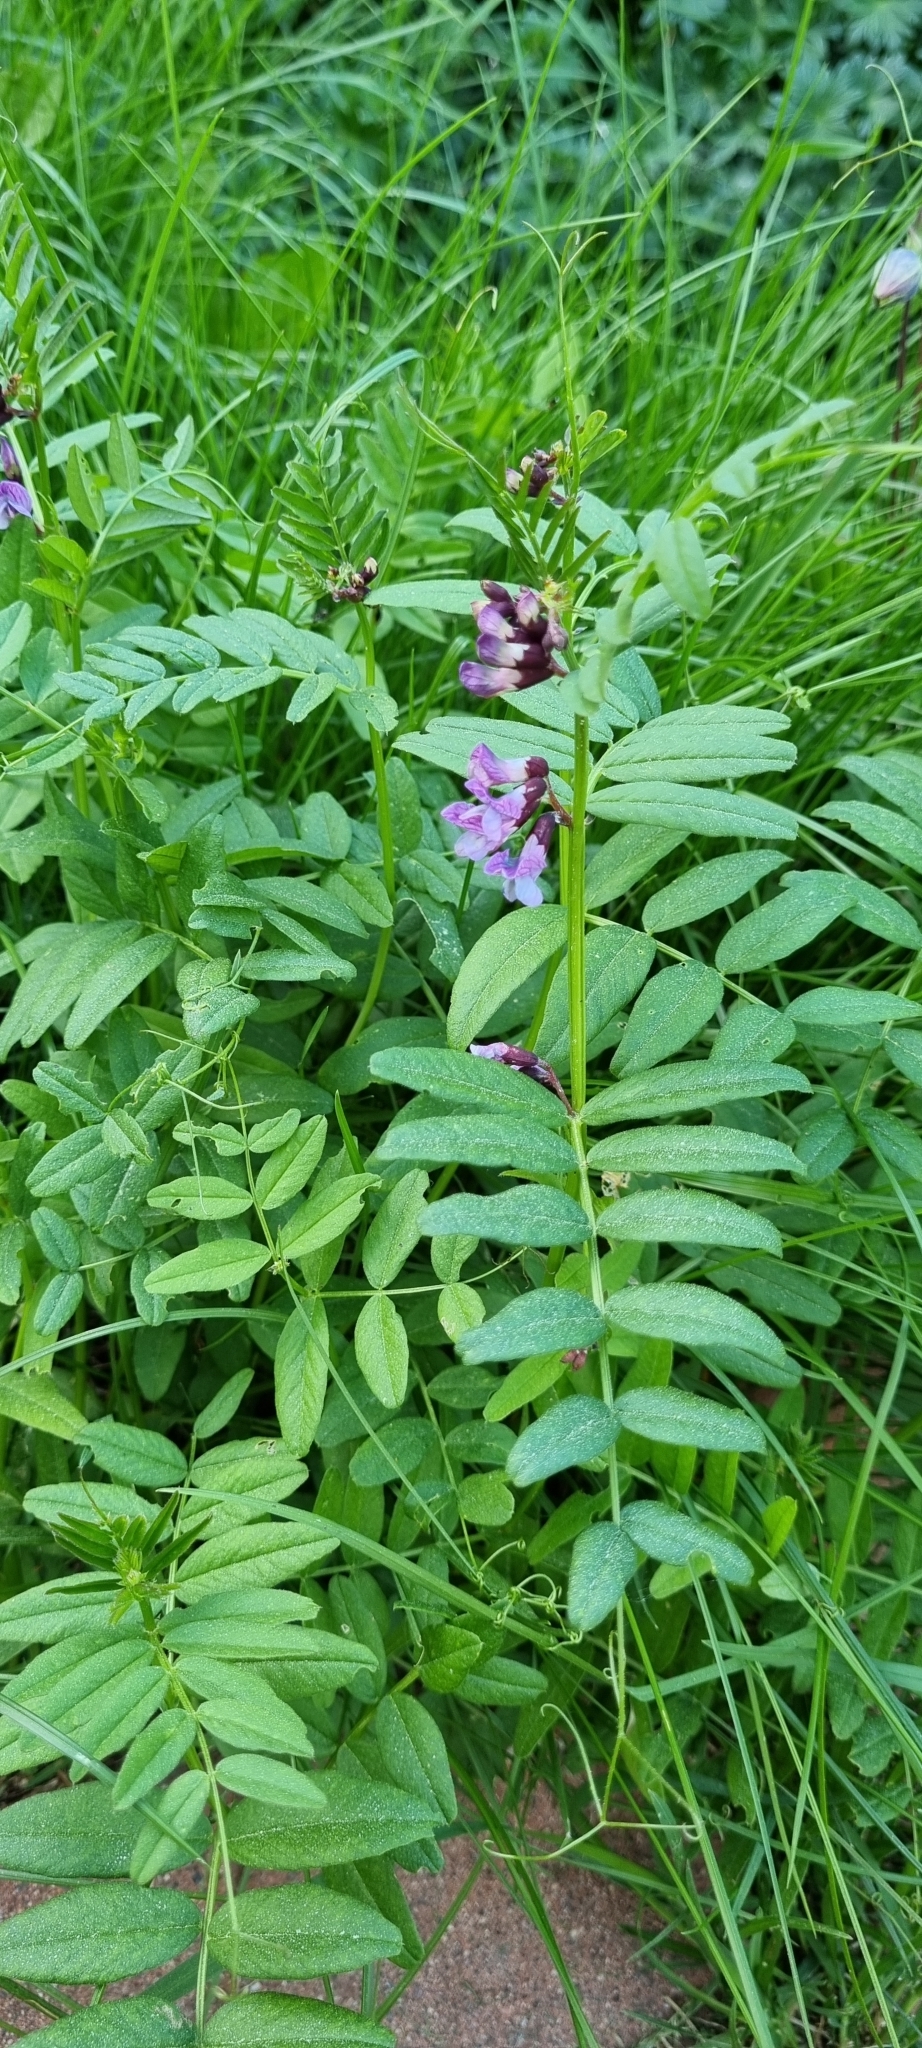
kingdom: Plantae
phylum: Tracheophyta
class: Magnoliopsida
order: Fabales
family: Fabaceae
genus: Vicia
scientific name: Vicia sepium
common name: Bush vetch
